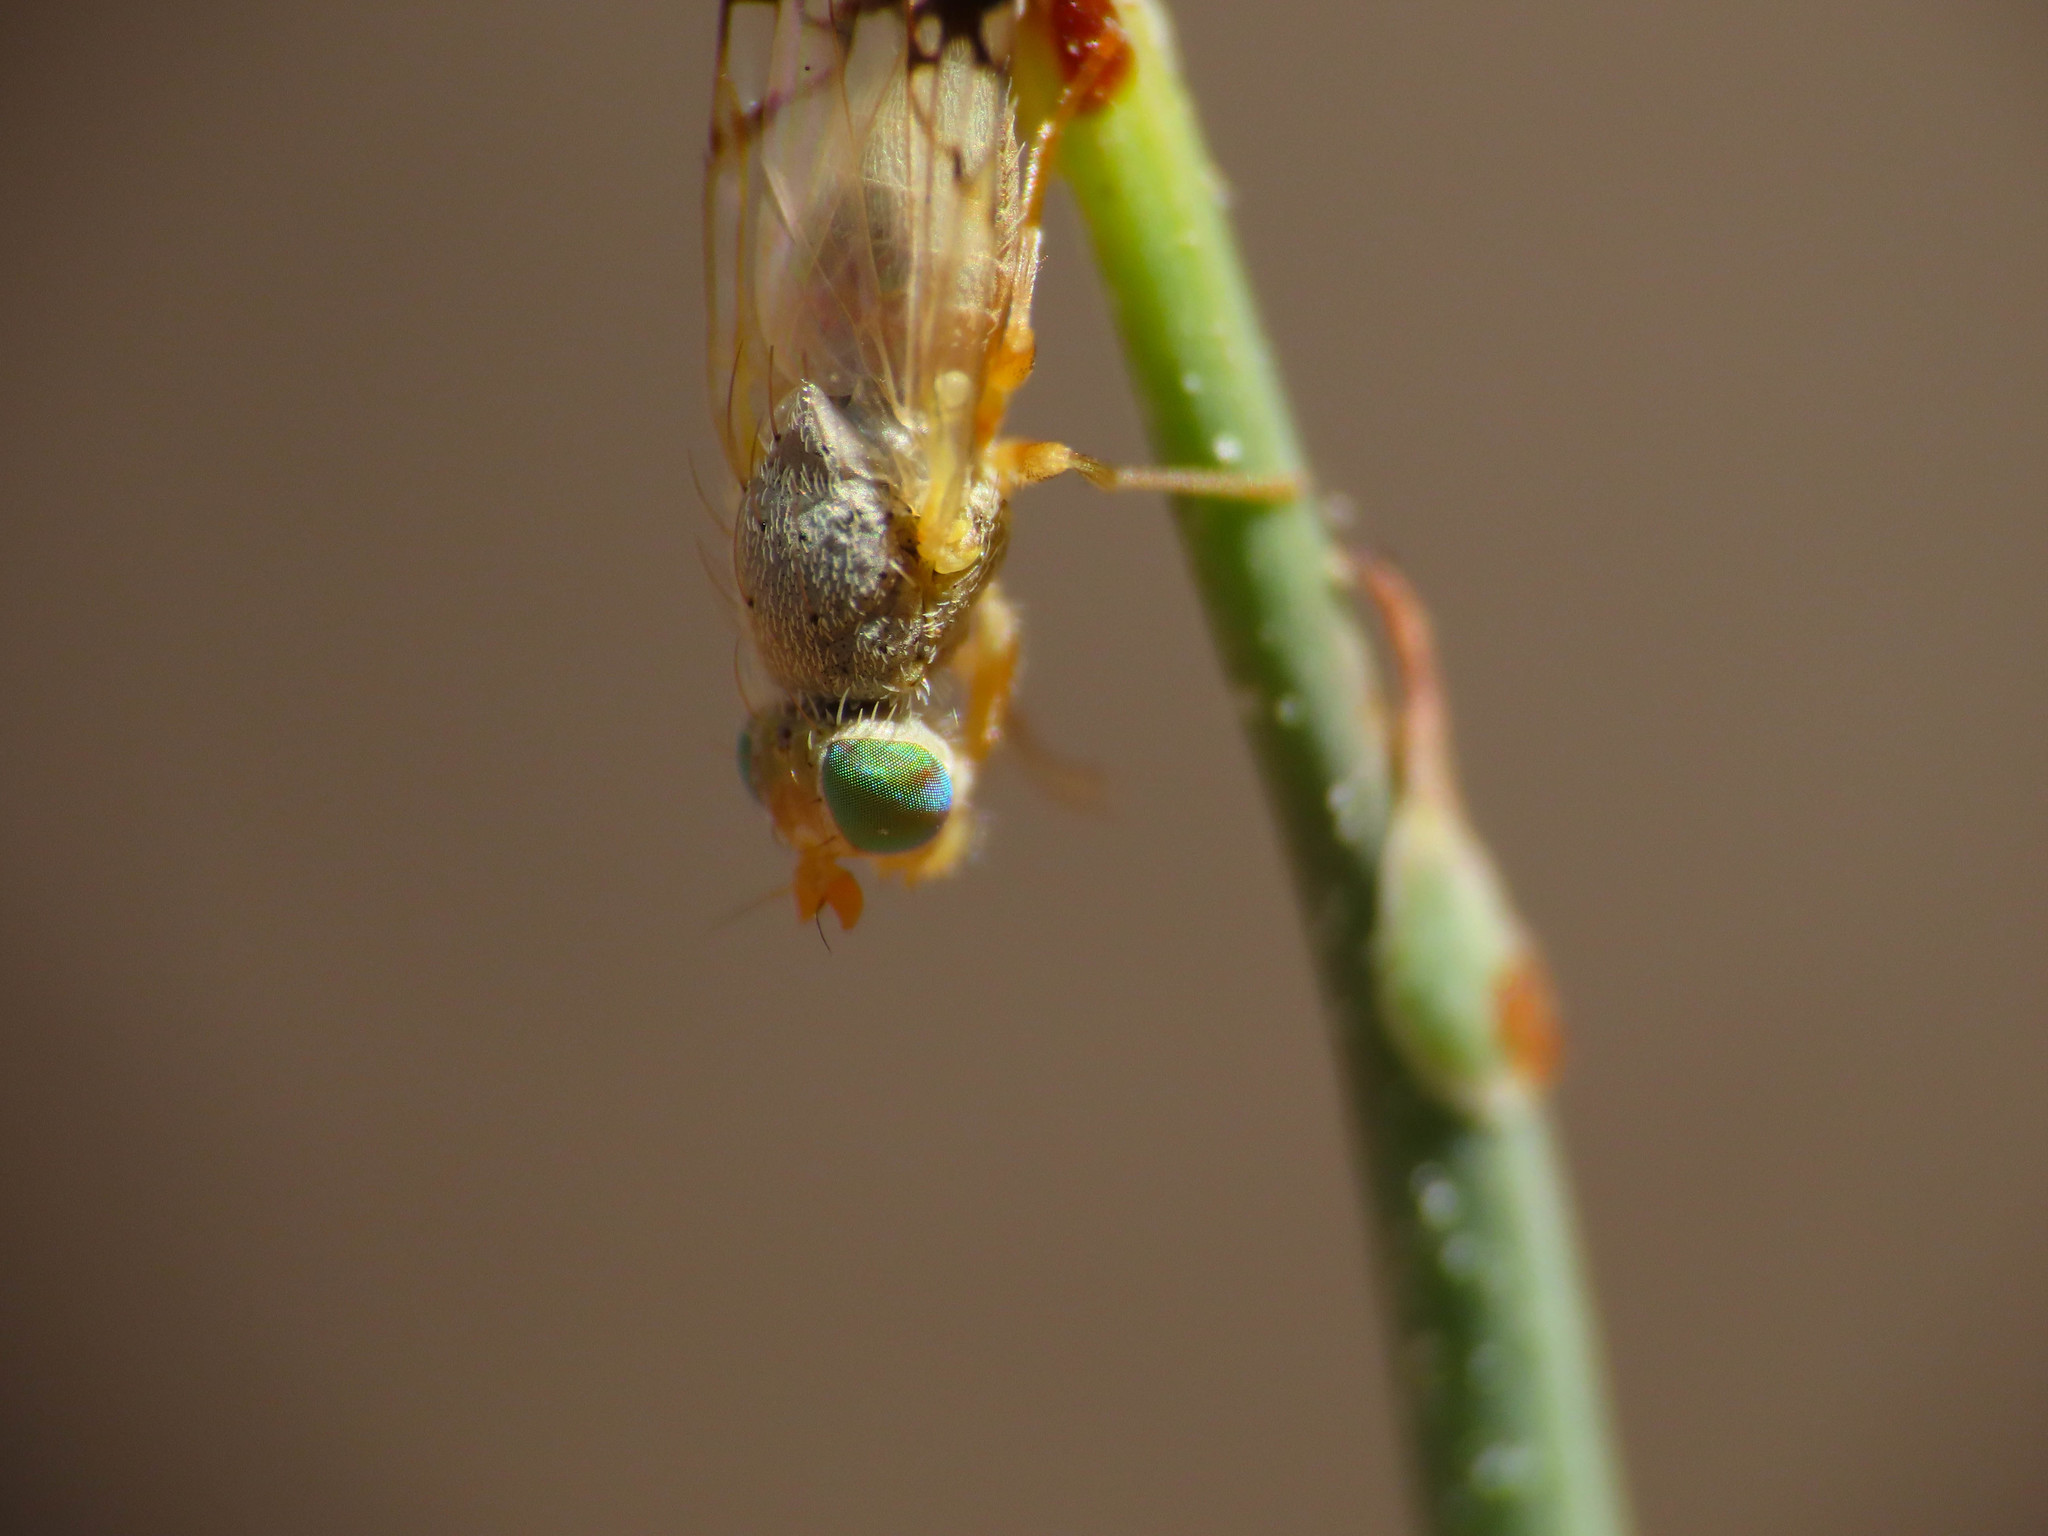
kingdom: Animalia
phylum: Arthropoda
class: Insecta
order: Diptera
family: Tephritidae
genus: Trupanea
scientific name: Trupanea amoena
